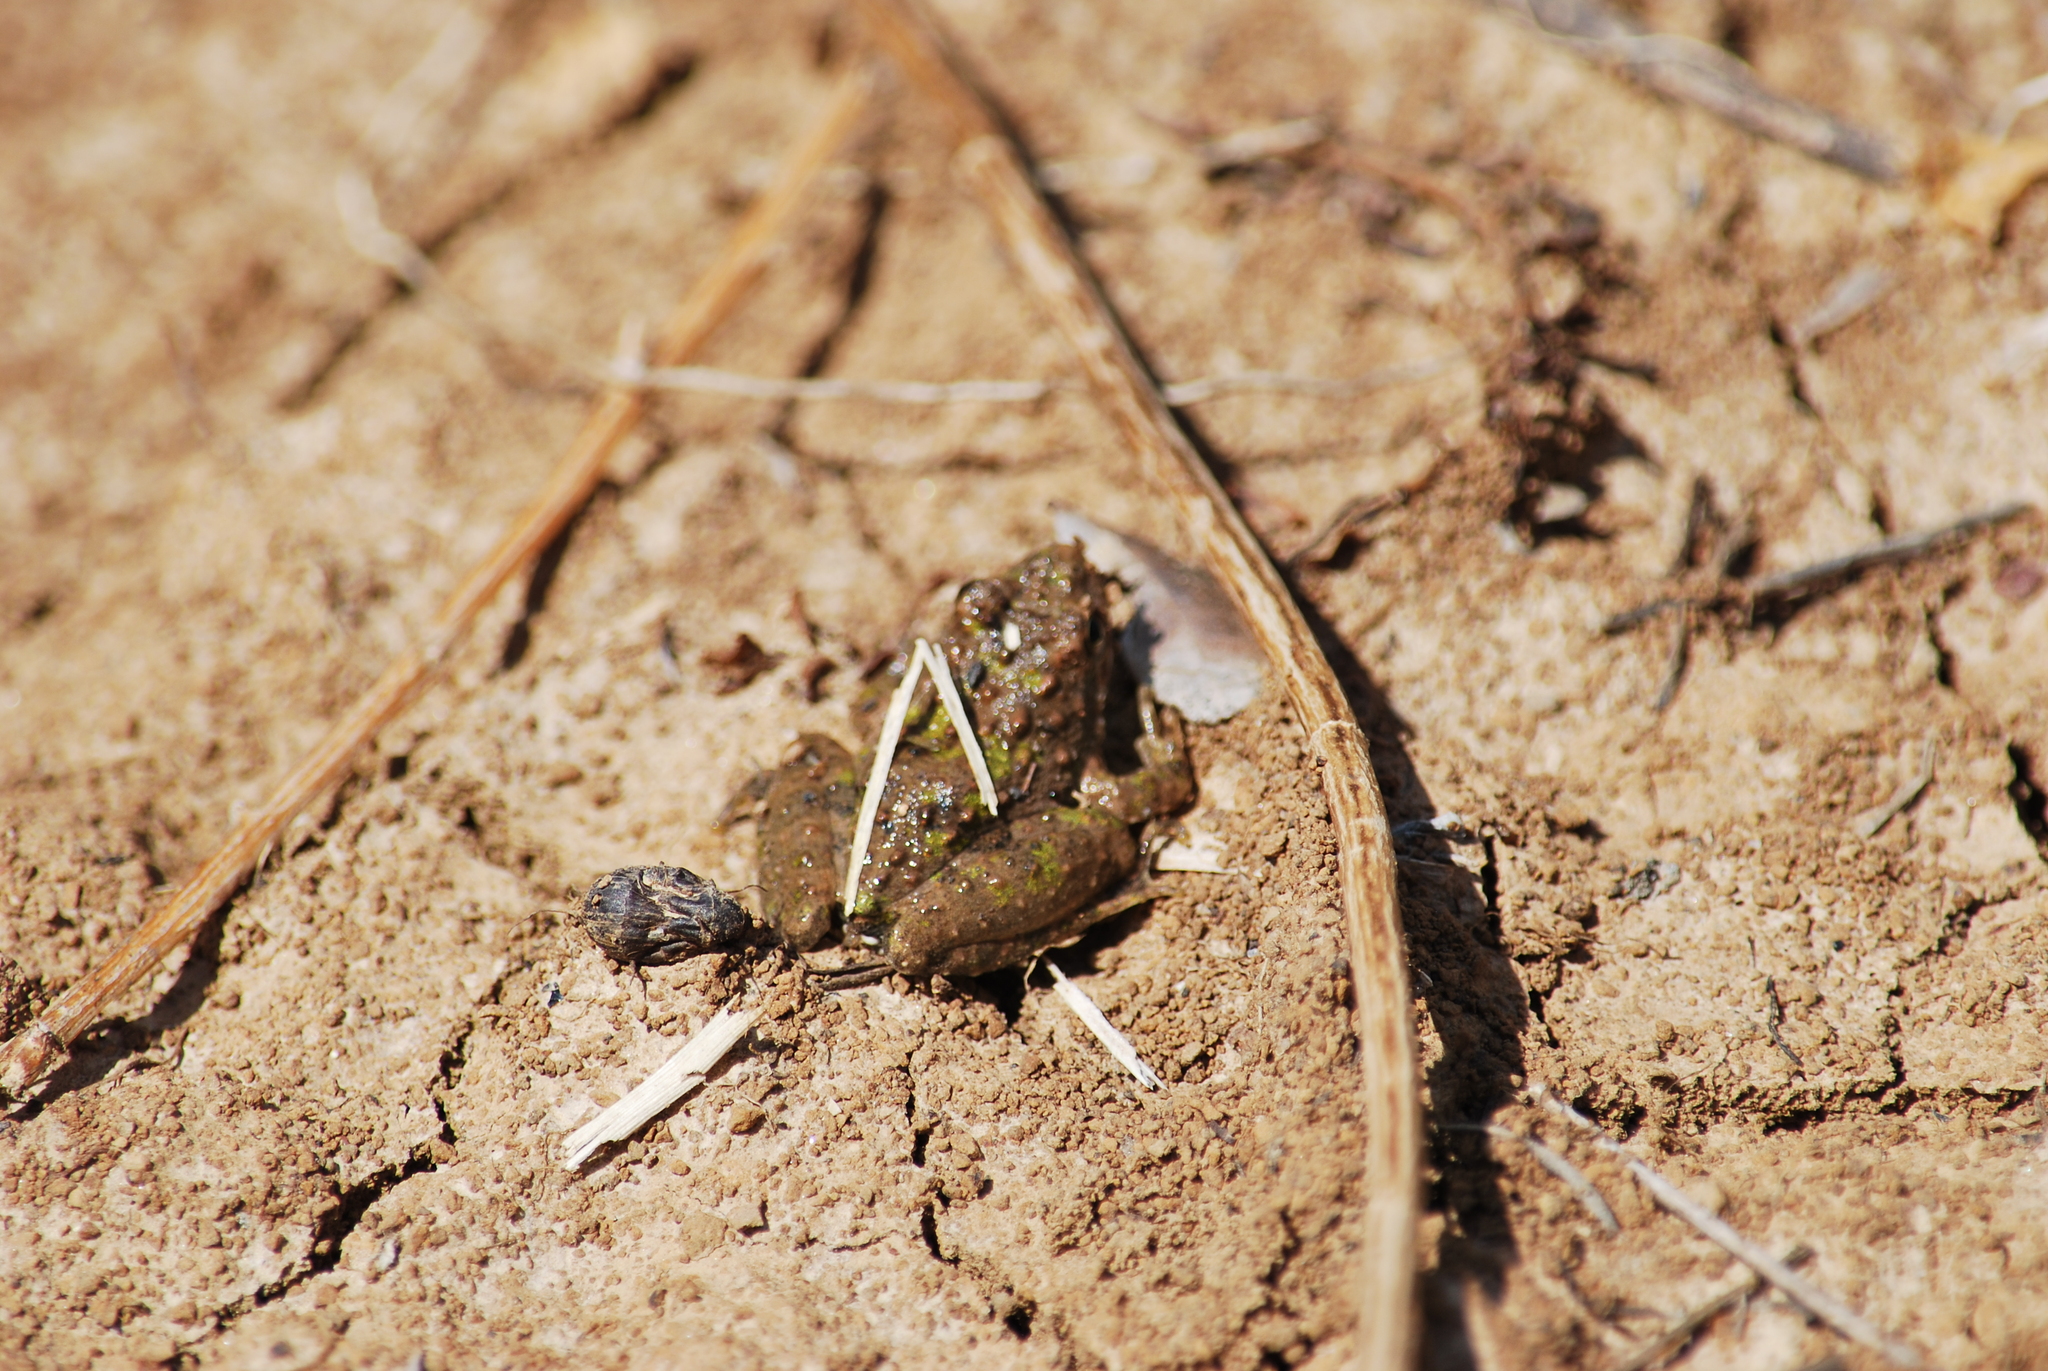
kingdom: Animalia
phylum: Chordata
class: Amphibia
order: Anura
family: Hylidae
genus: Acris
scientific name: Acris blanchardi
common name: Blanchard's cricket frog
